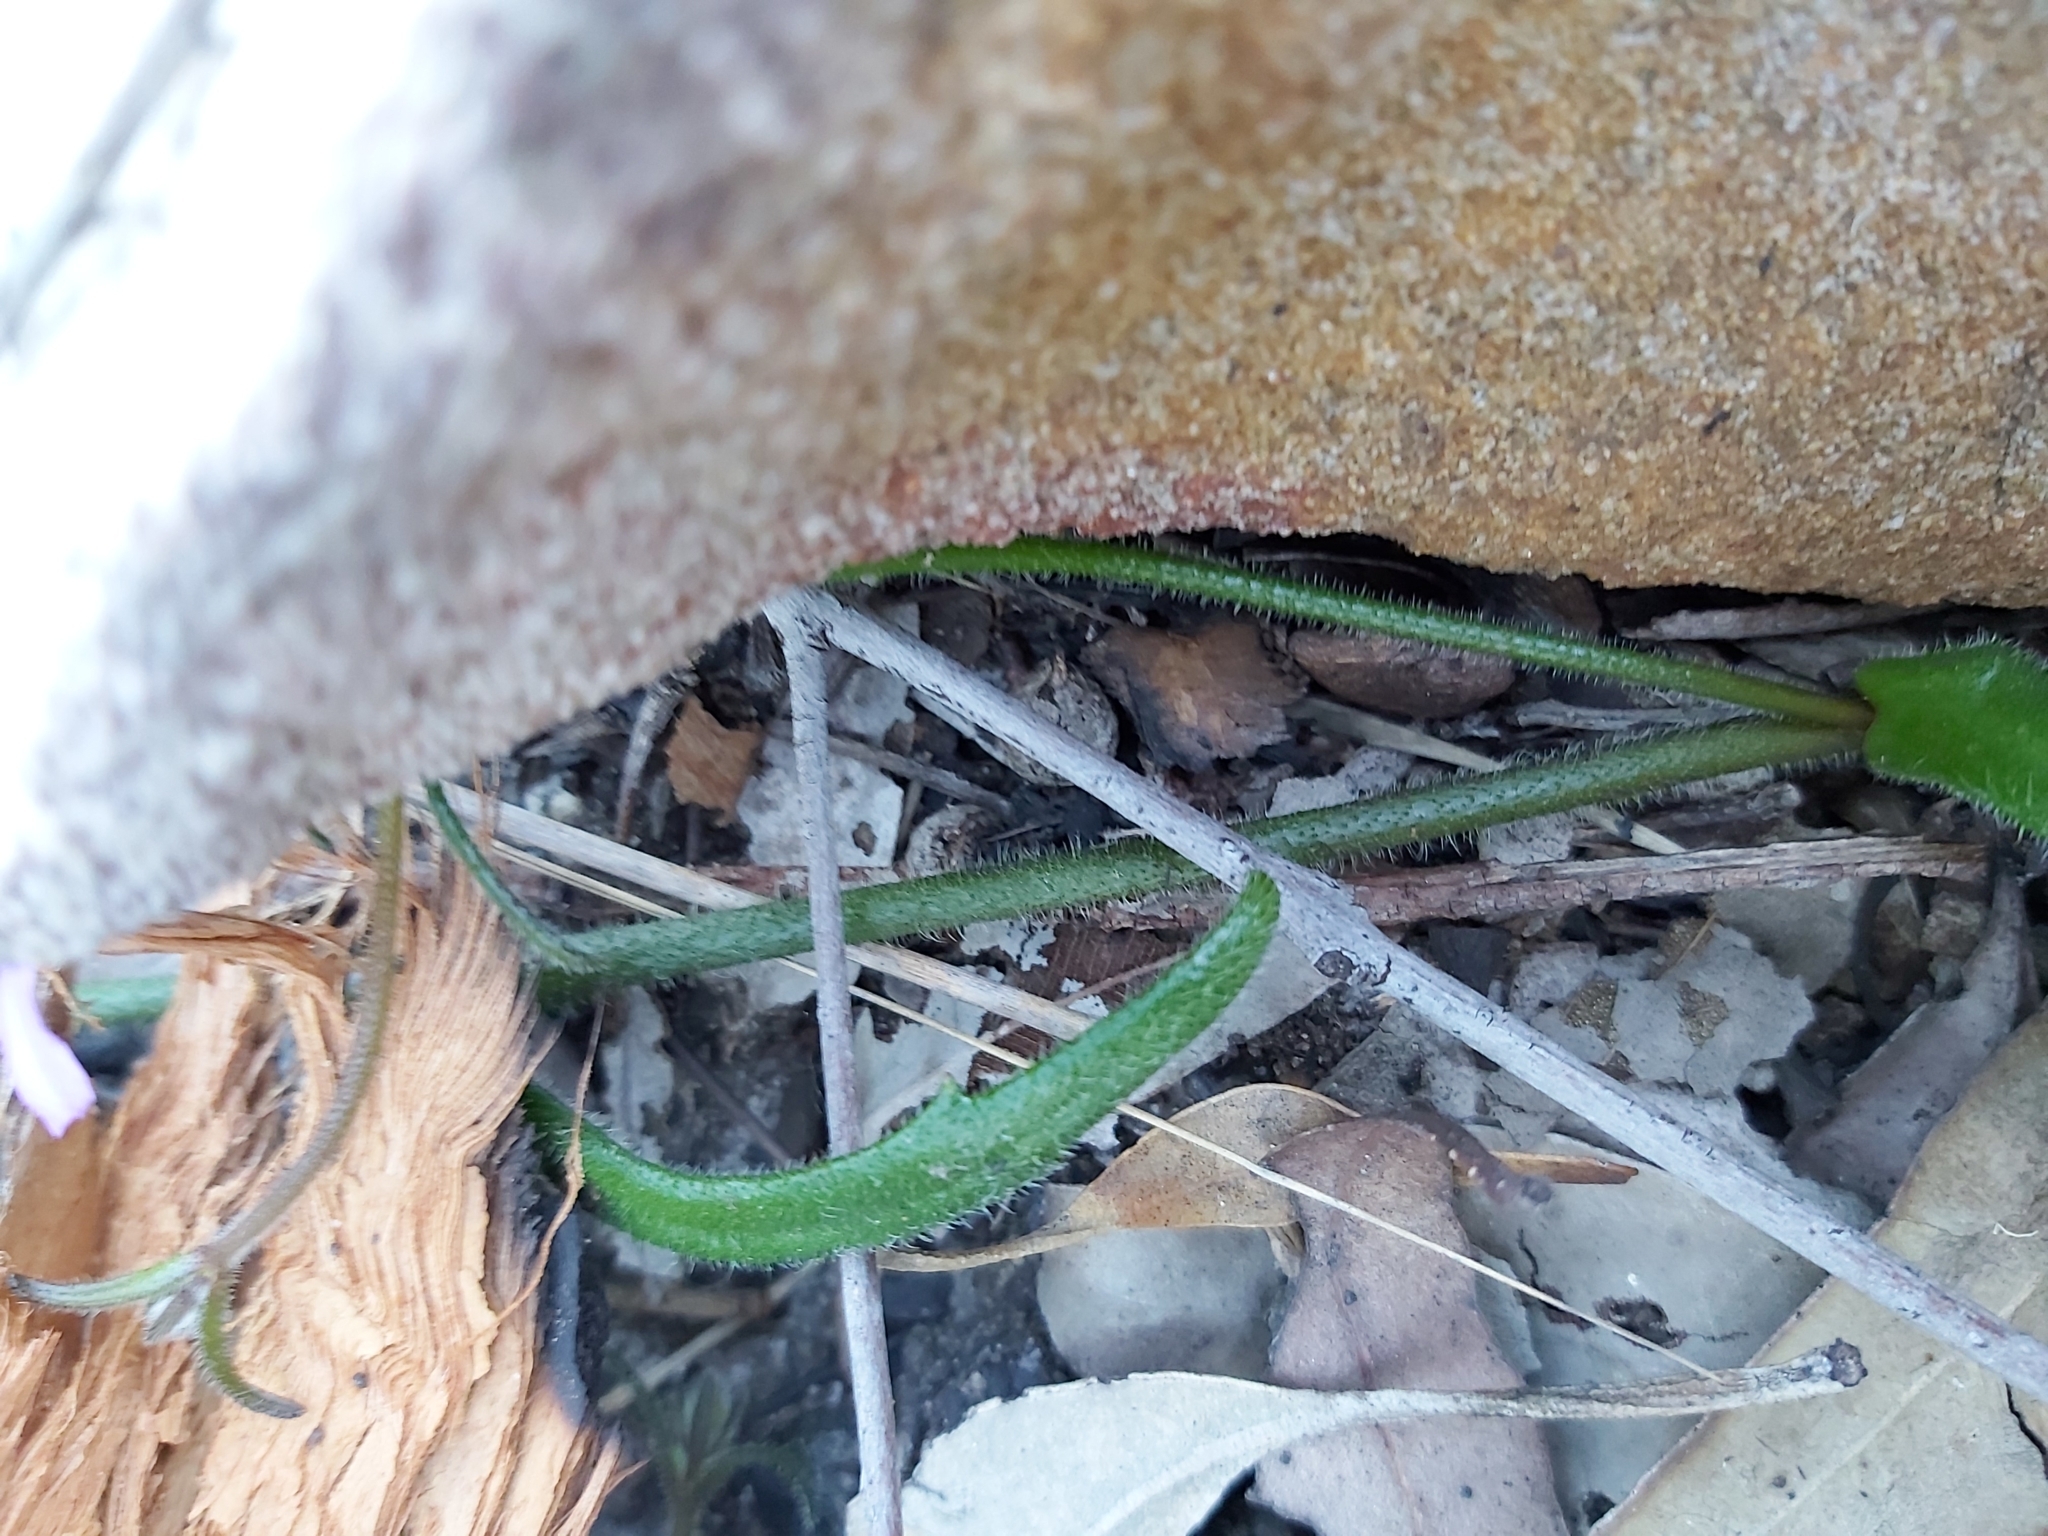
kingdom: Plantae
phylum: Tracheophyta
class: Magnoliopsida
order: Asterales
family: Goodeniaceae
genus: Scaevola
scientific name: Scaevola ramosissima
